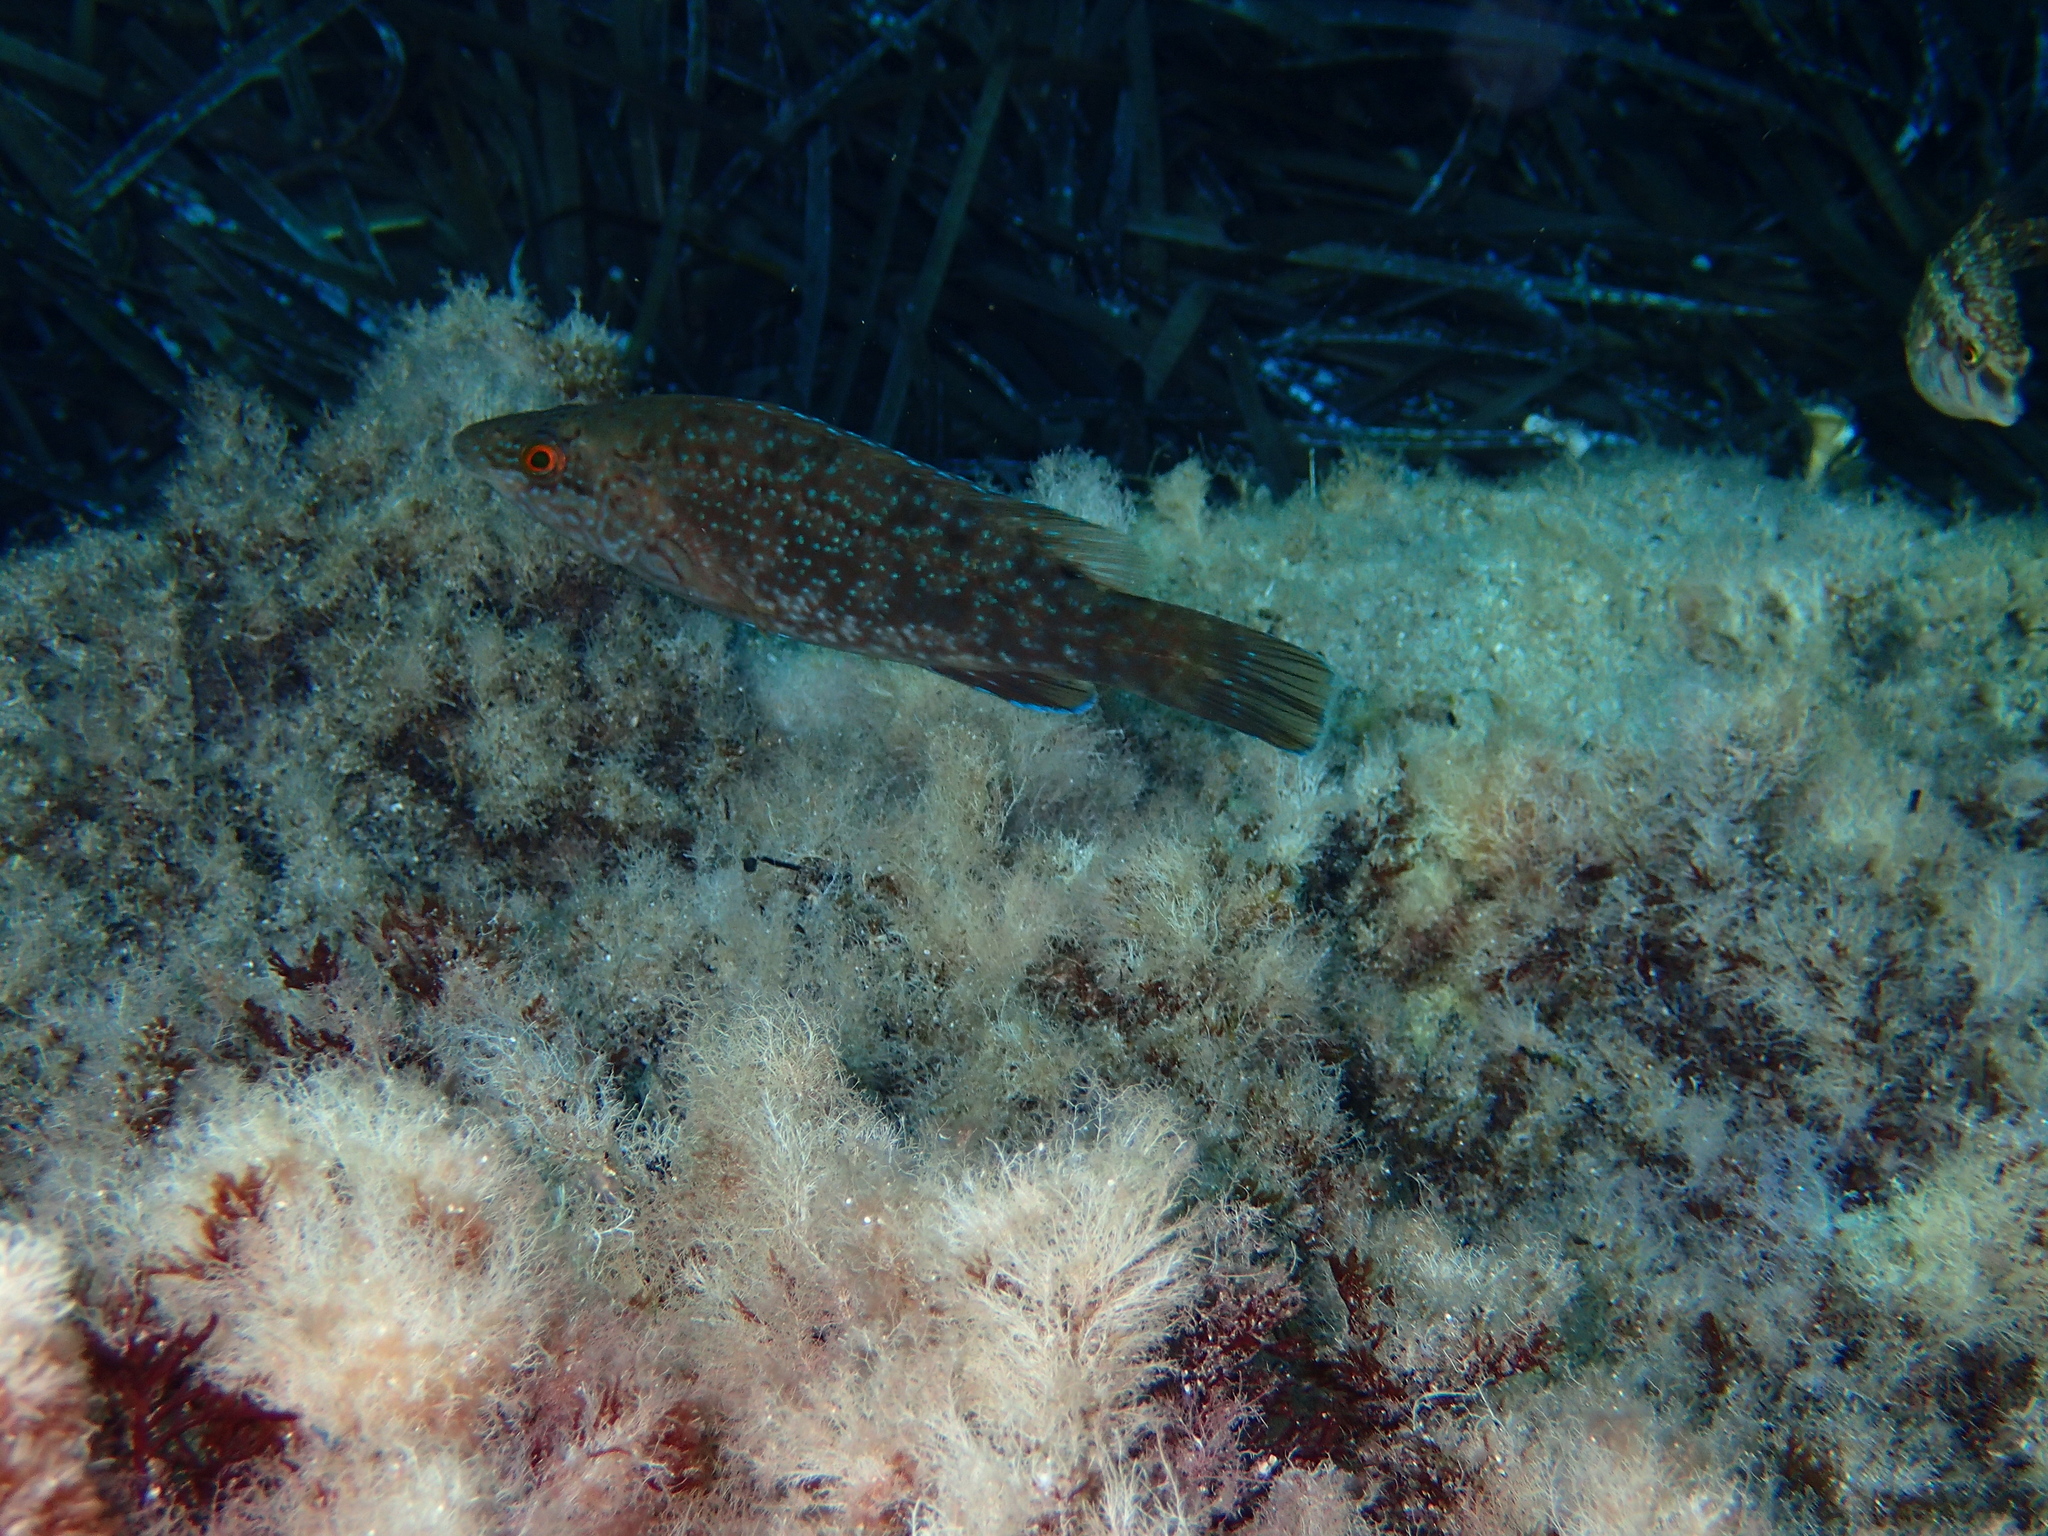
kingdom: Animalia
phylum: Chordata
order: Perciformes
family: Labridae
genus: Labrus
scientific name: Labrus merula
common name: Brown wrasse
